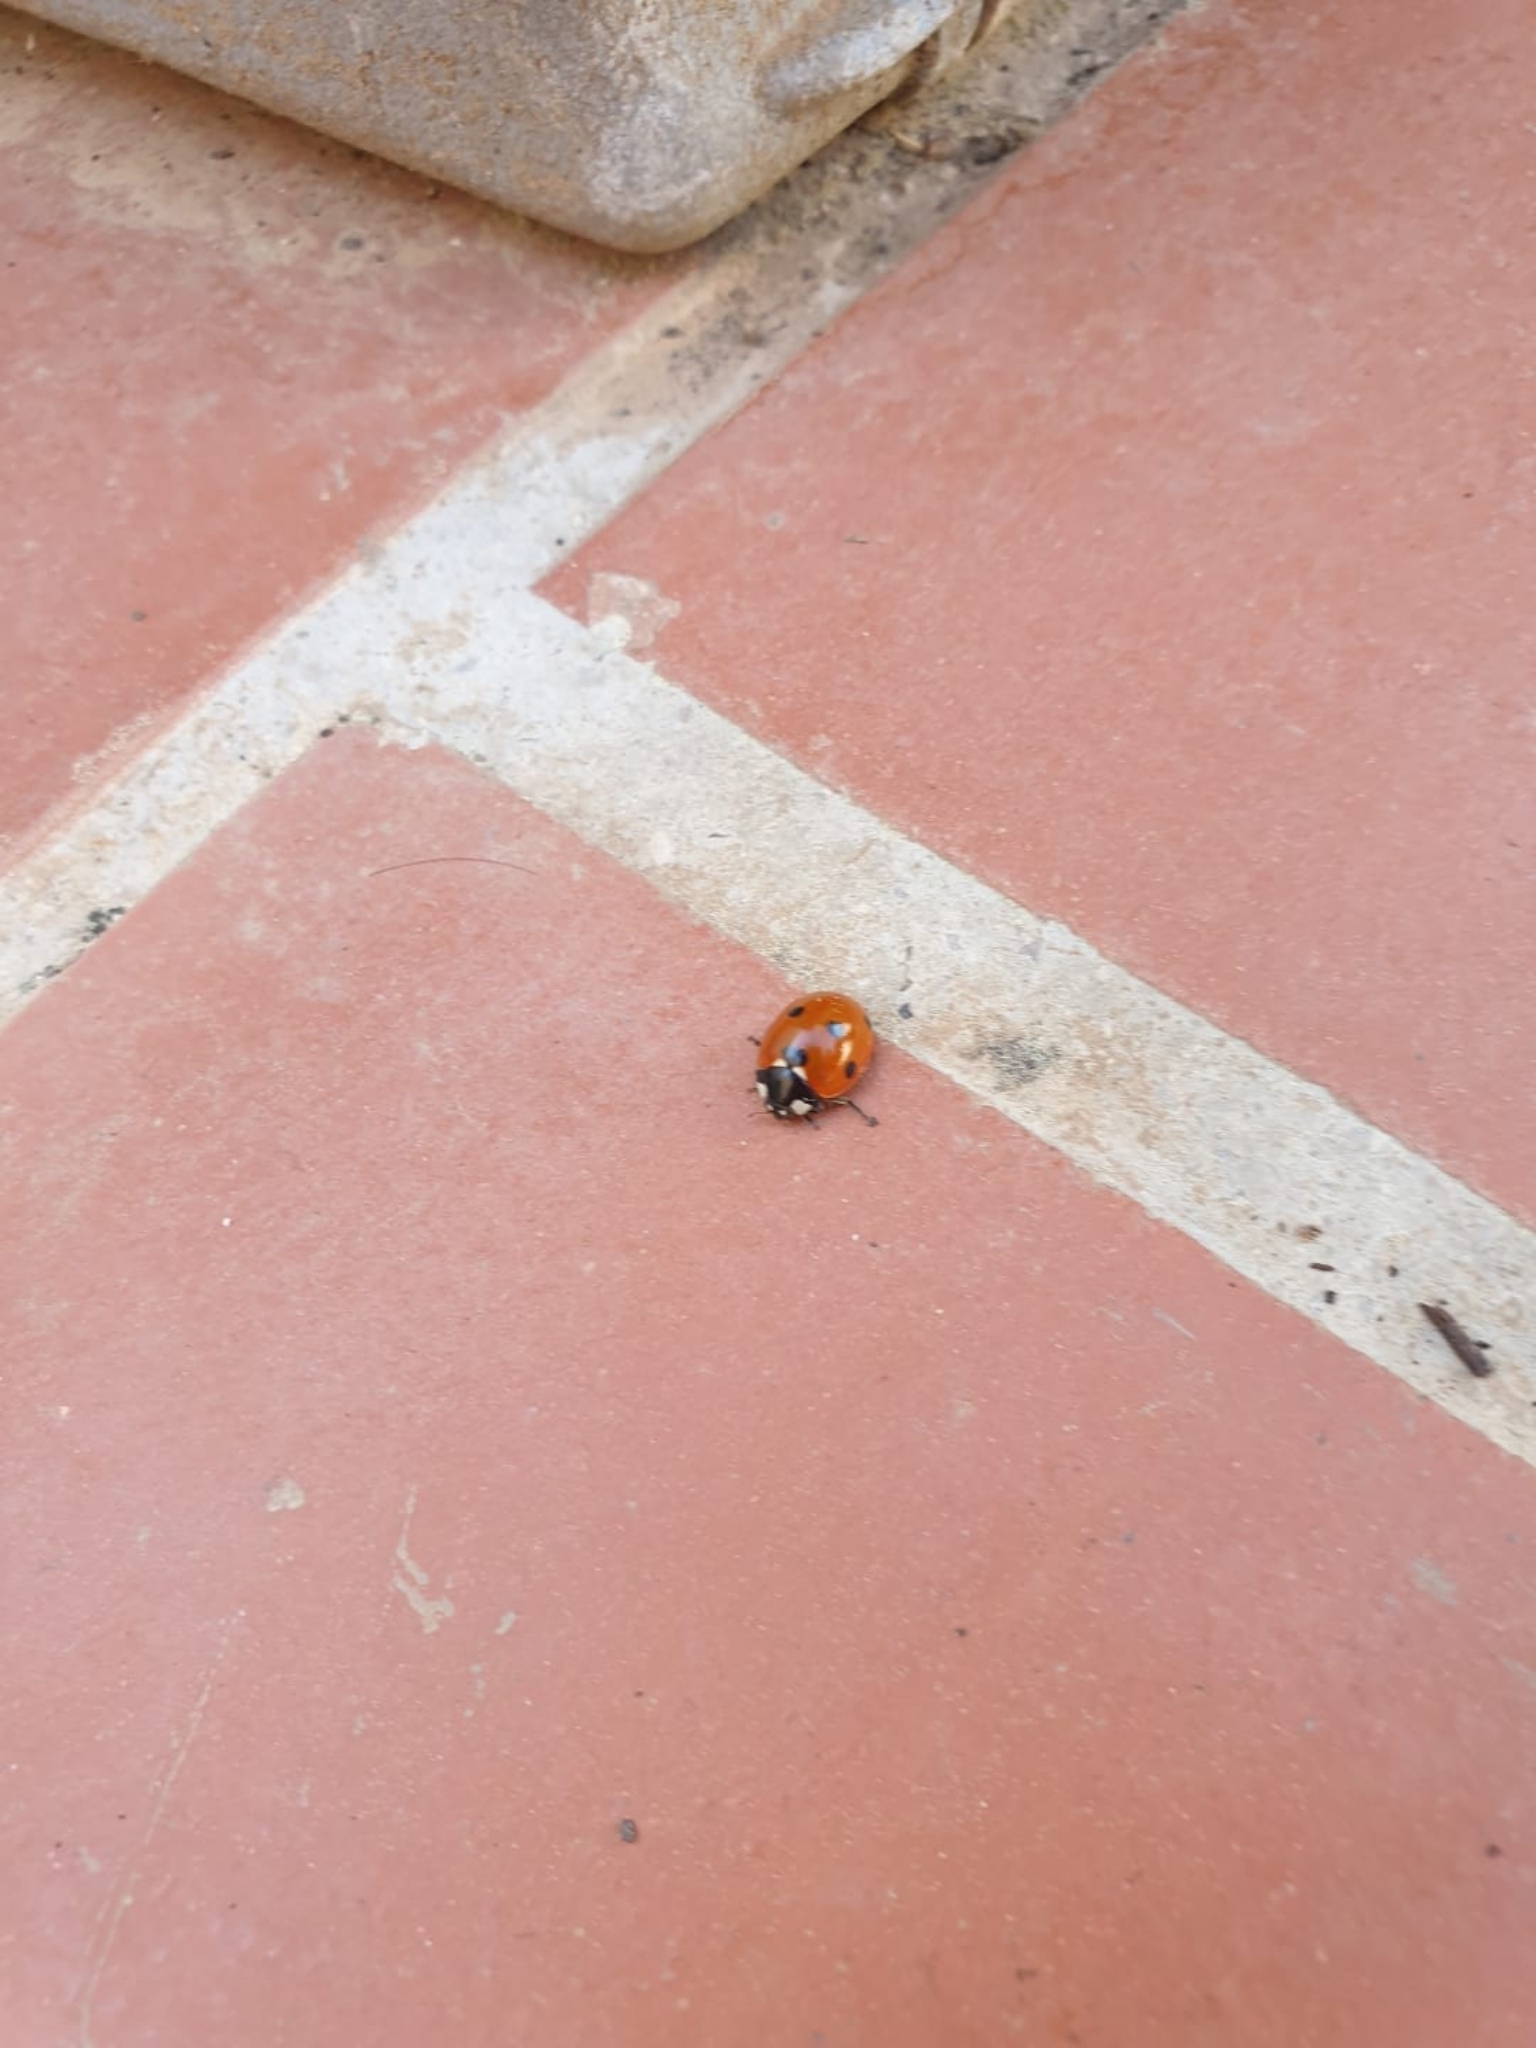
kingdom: Animalia
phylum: Arthropoda
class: Insecta
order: Coleoptera
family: Coccinellidae
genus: Coccinella
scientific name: Coccinella septempunctata
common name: Sevenspotted lady beetle
